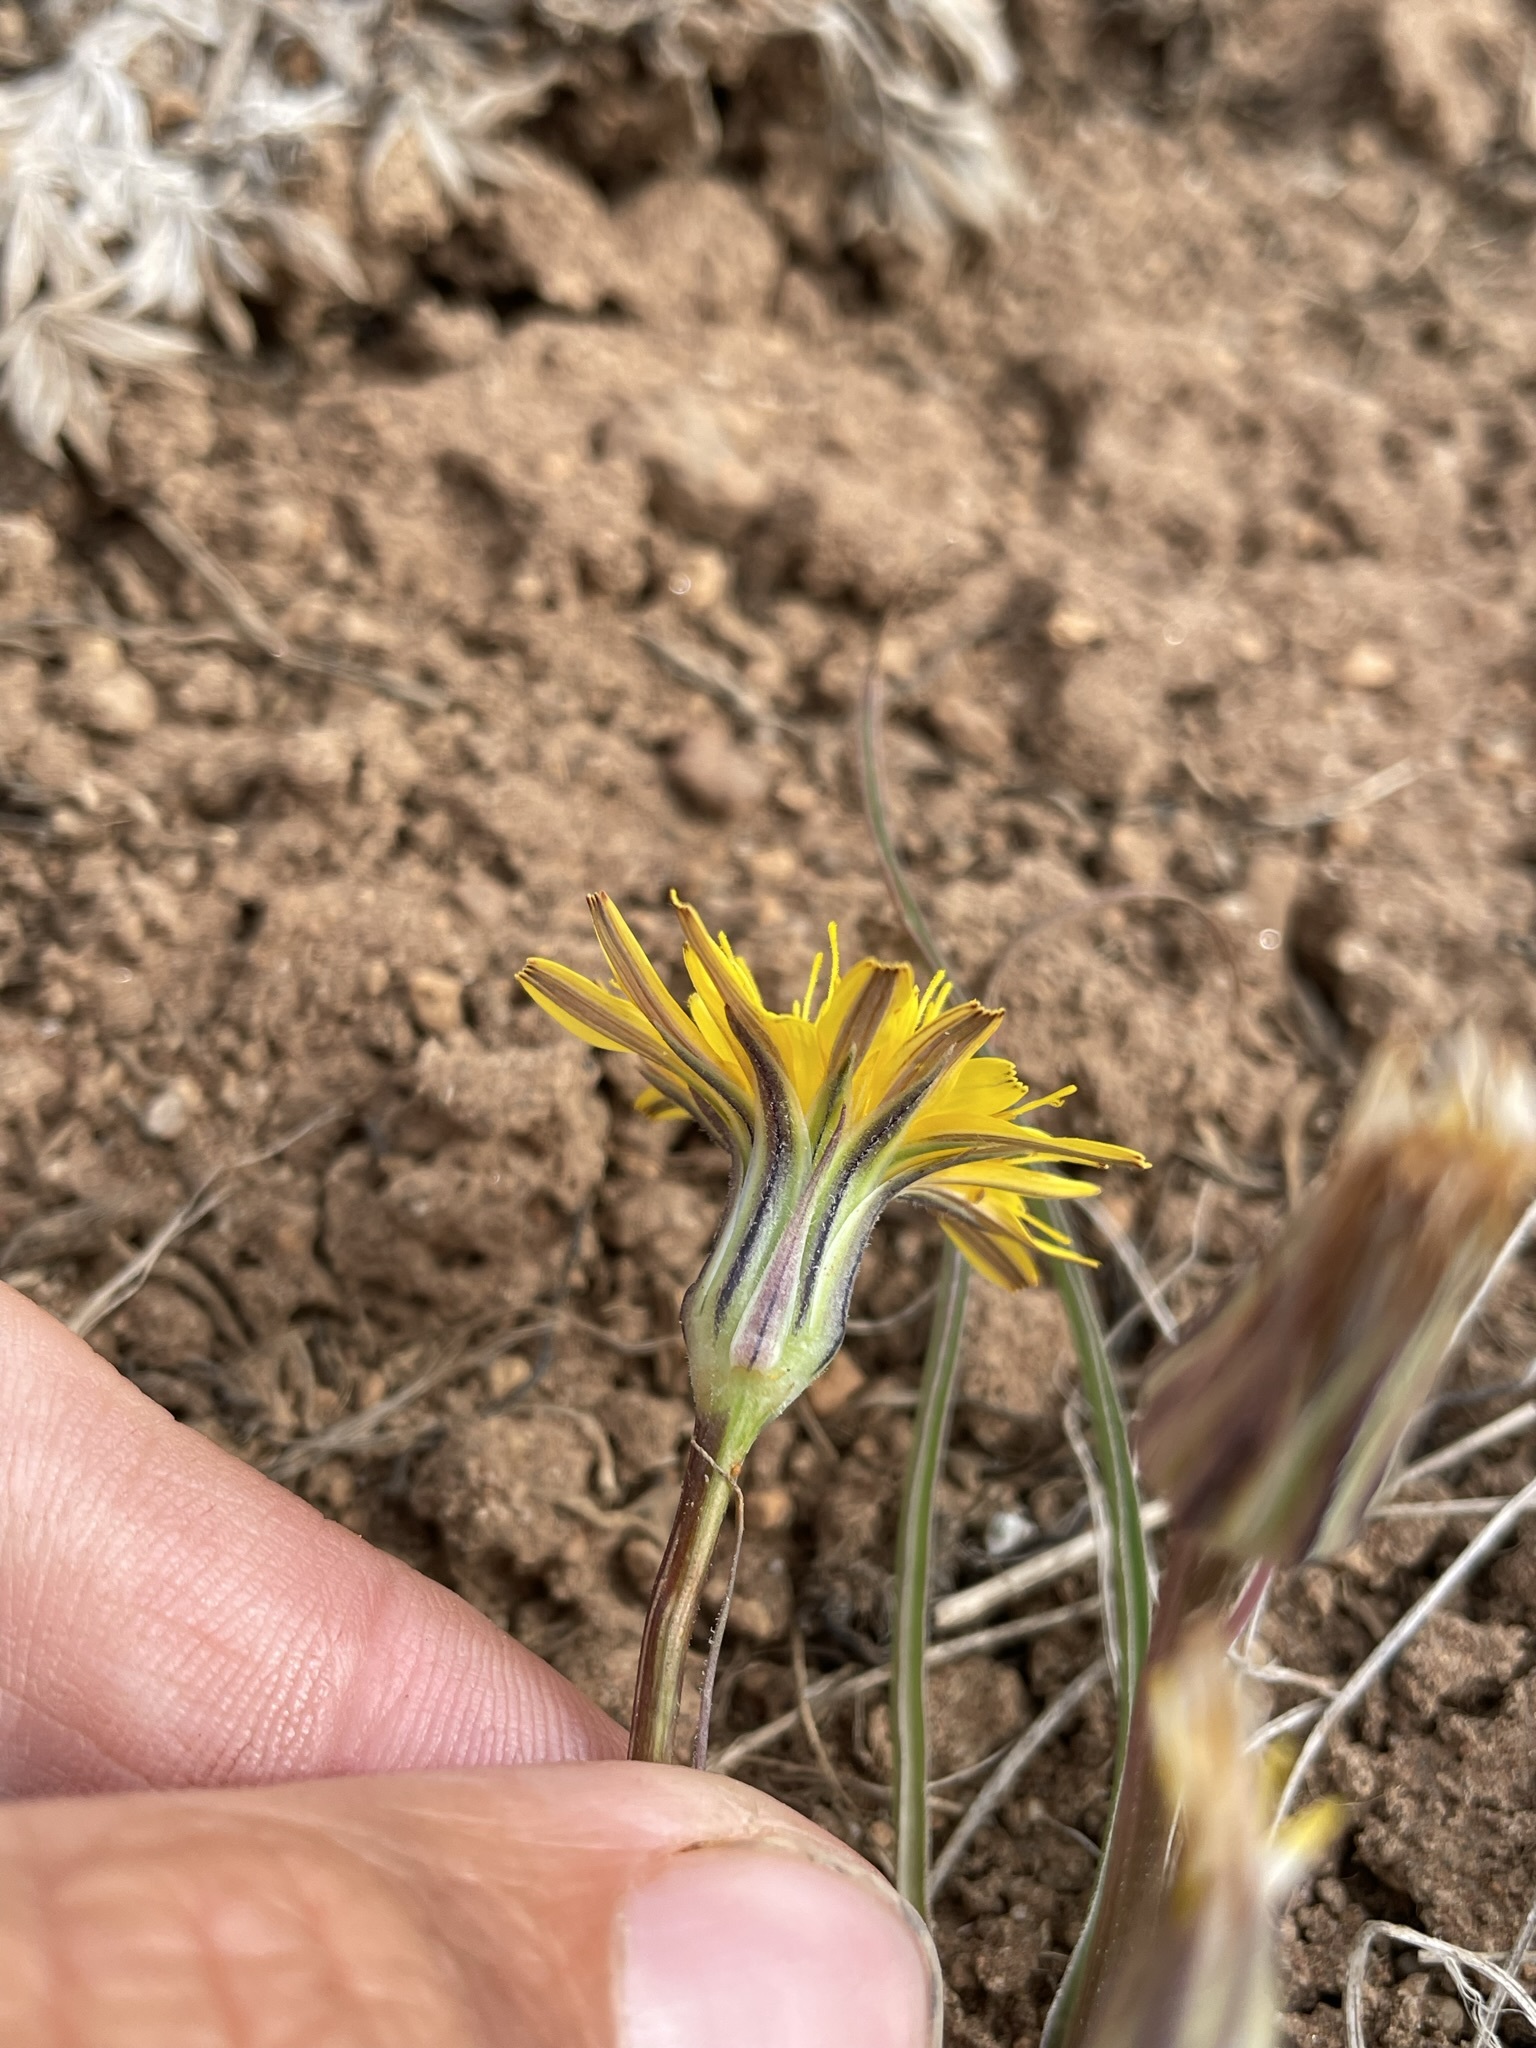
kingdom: Plantae
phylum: Tracheophyta
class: Magnoliopsida
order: Asterales
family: Asteraceae
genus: Microseris
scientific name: Microseris troximoides
